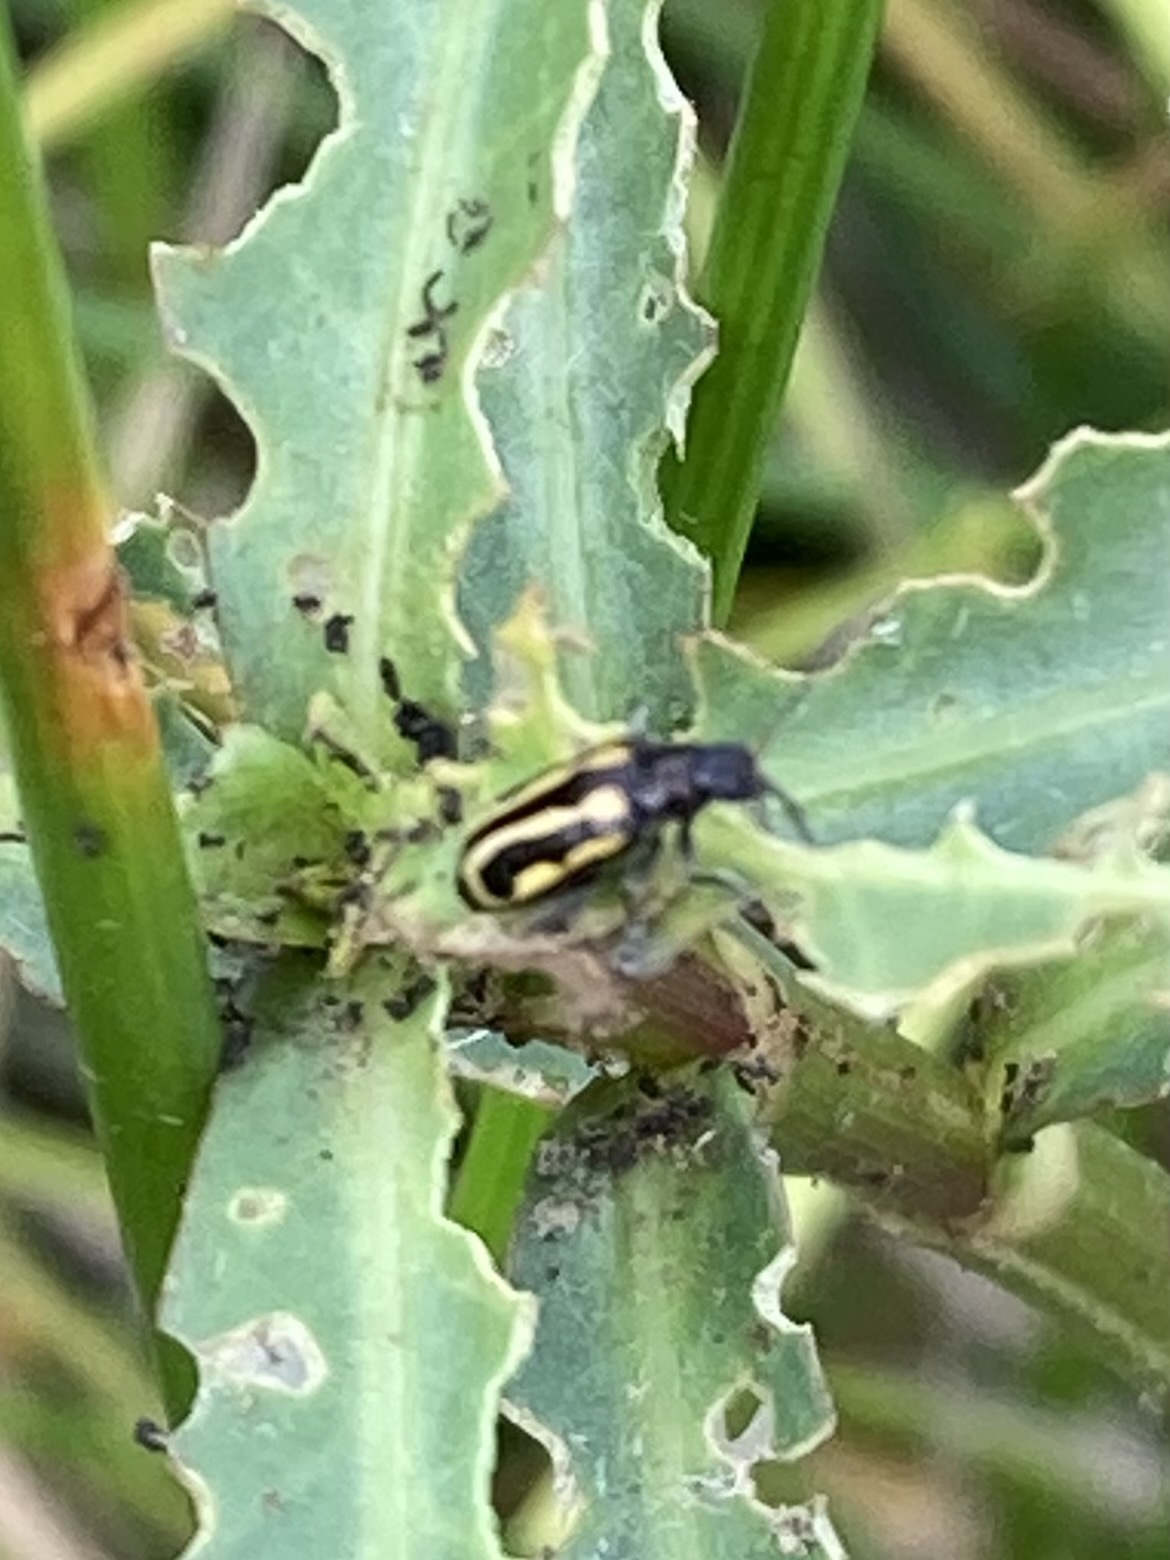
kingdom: Animalia
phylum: Arthropoda
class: Insecta
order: Coleoptera
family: Chrysomelidae
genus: Agasicles
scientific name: Agasicles hygrophila
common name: Alligatorweed flea beetle
